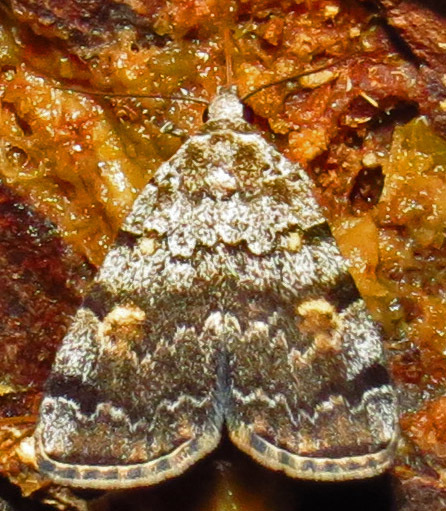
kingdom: Animalia
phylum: Arthropoda
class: Insecta
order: Lepidoptera
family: Erebidae
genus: Idia
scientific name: Idia americalis
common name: American idia moth
